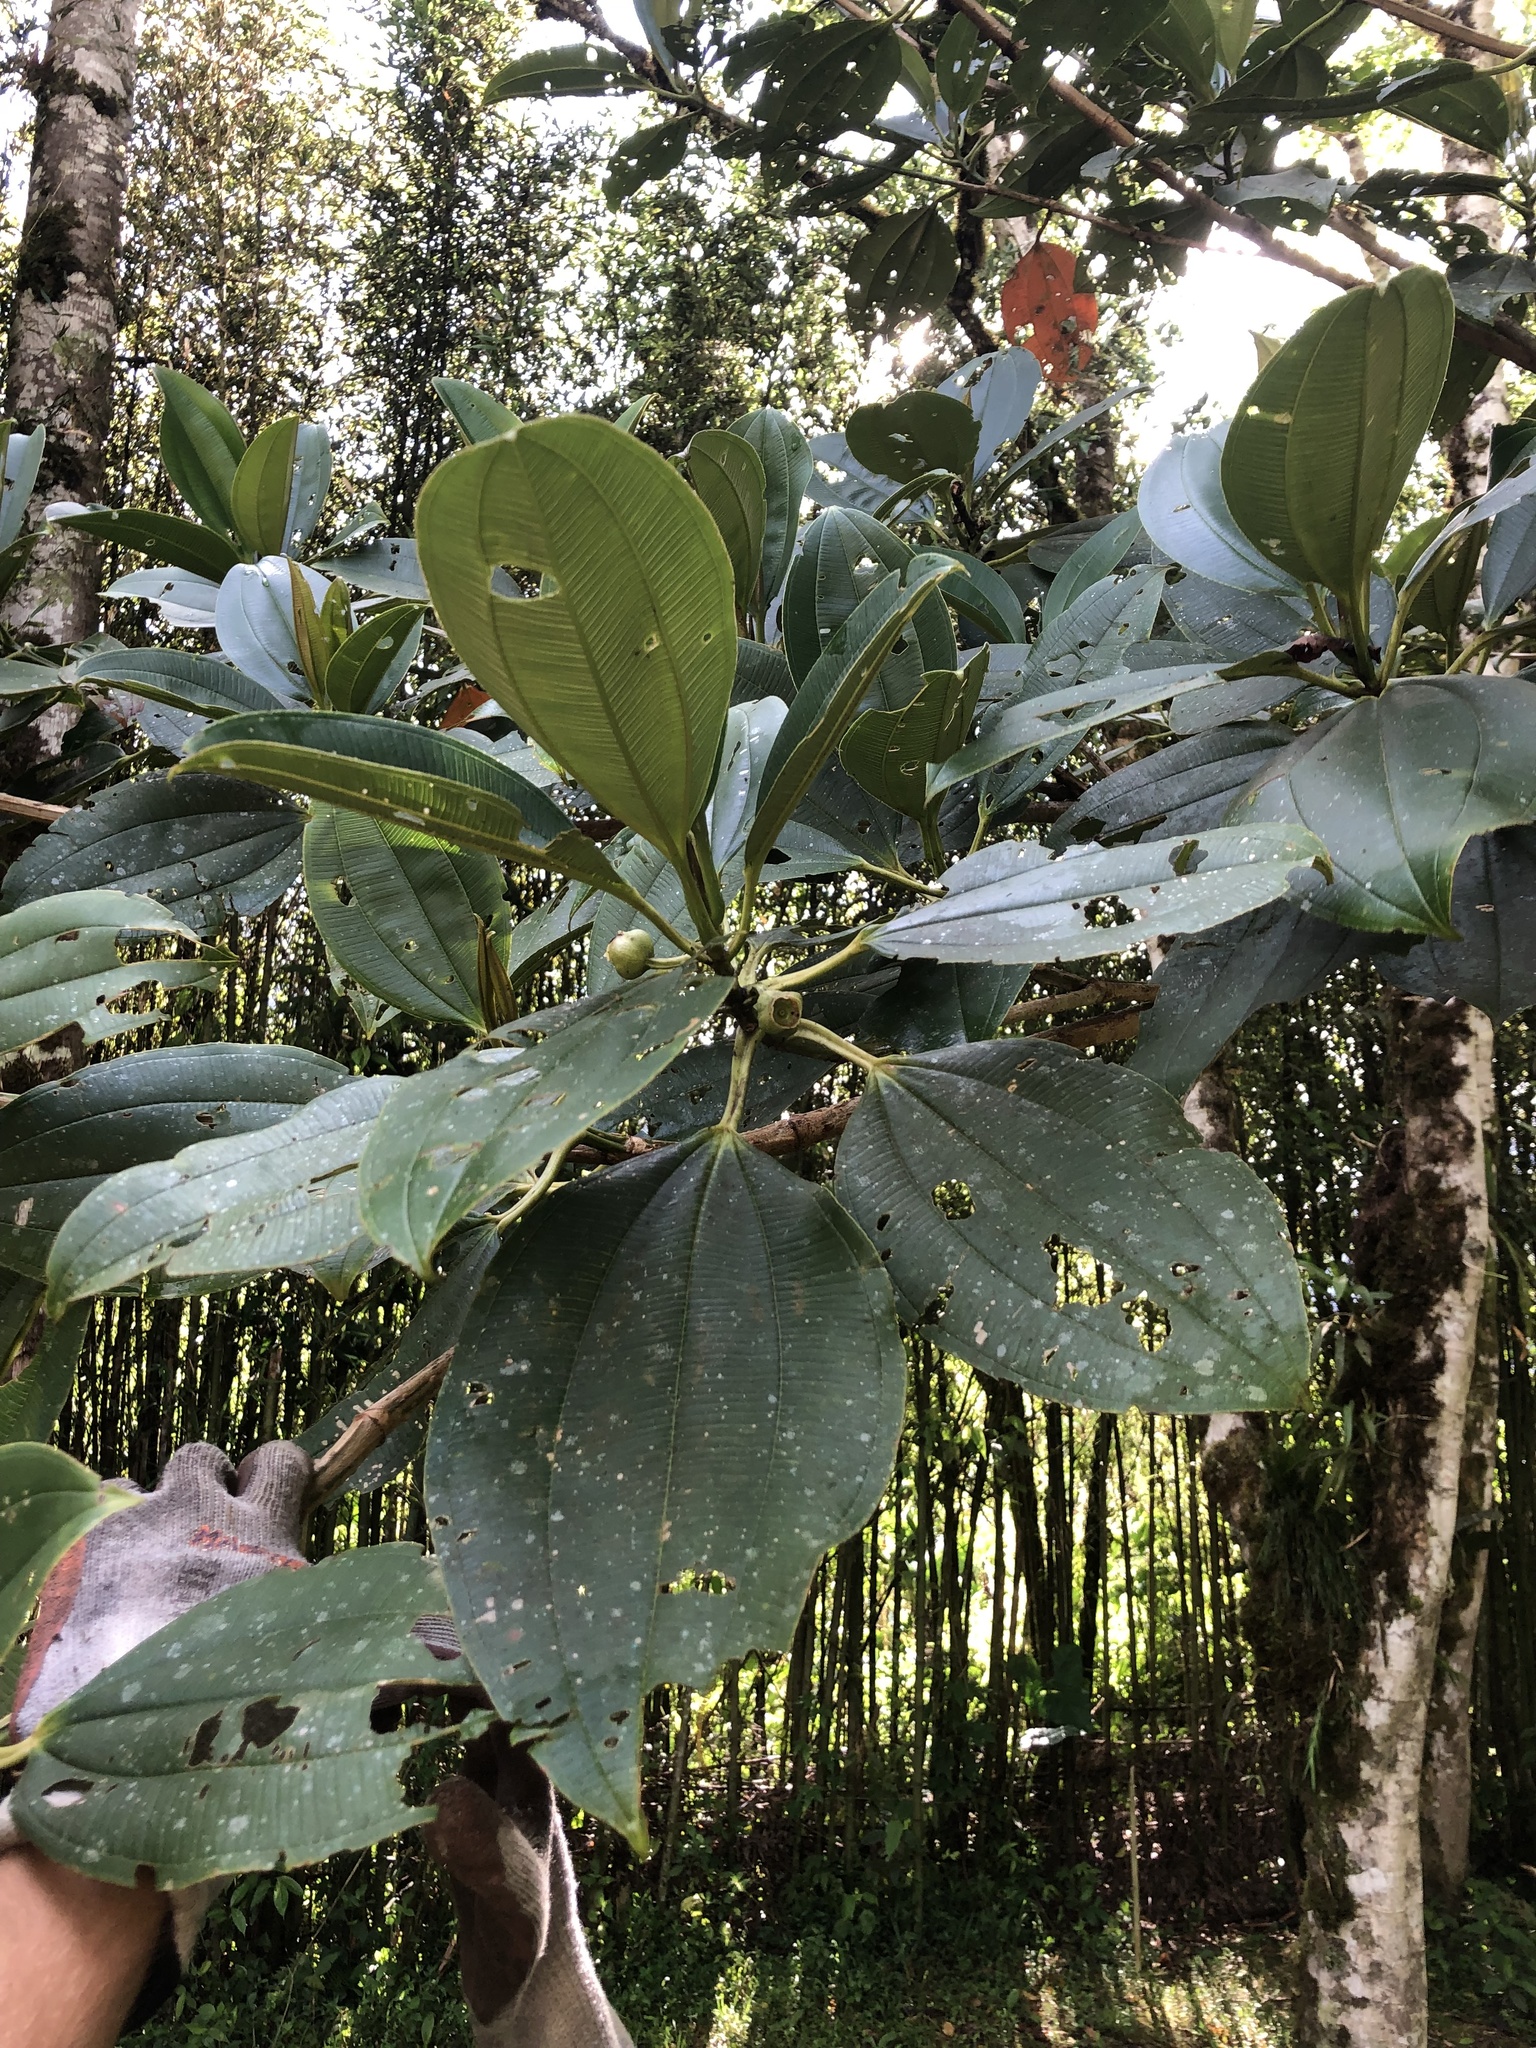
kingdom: Plantae
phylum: Tracheophyta
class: Magnoliopsida
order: Myrtales
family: Melastomataceae
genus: Blakea
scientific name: Blakea subvaginata
